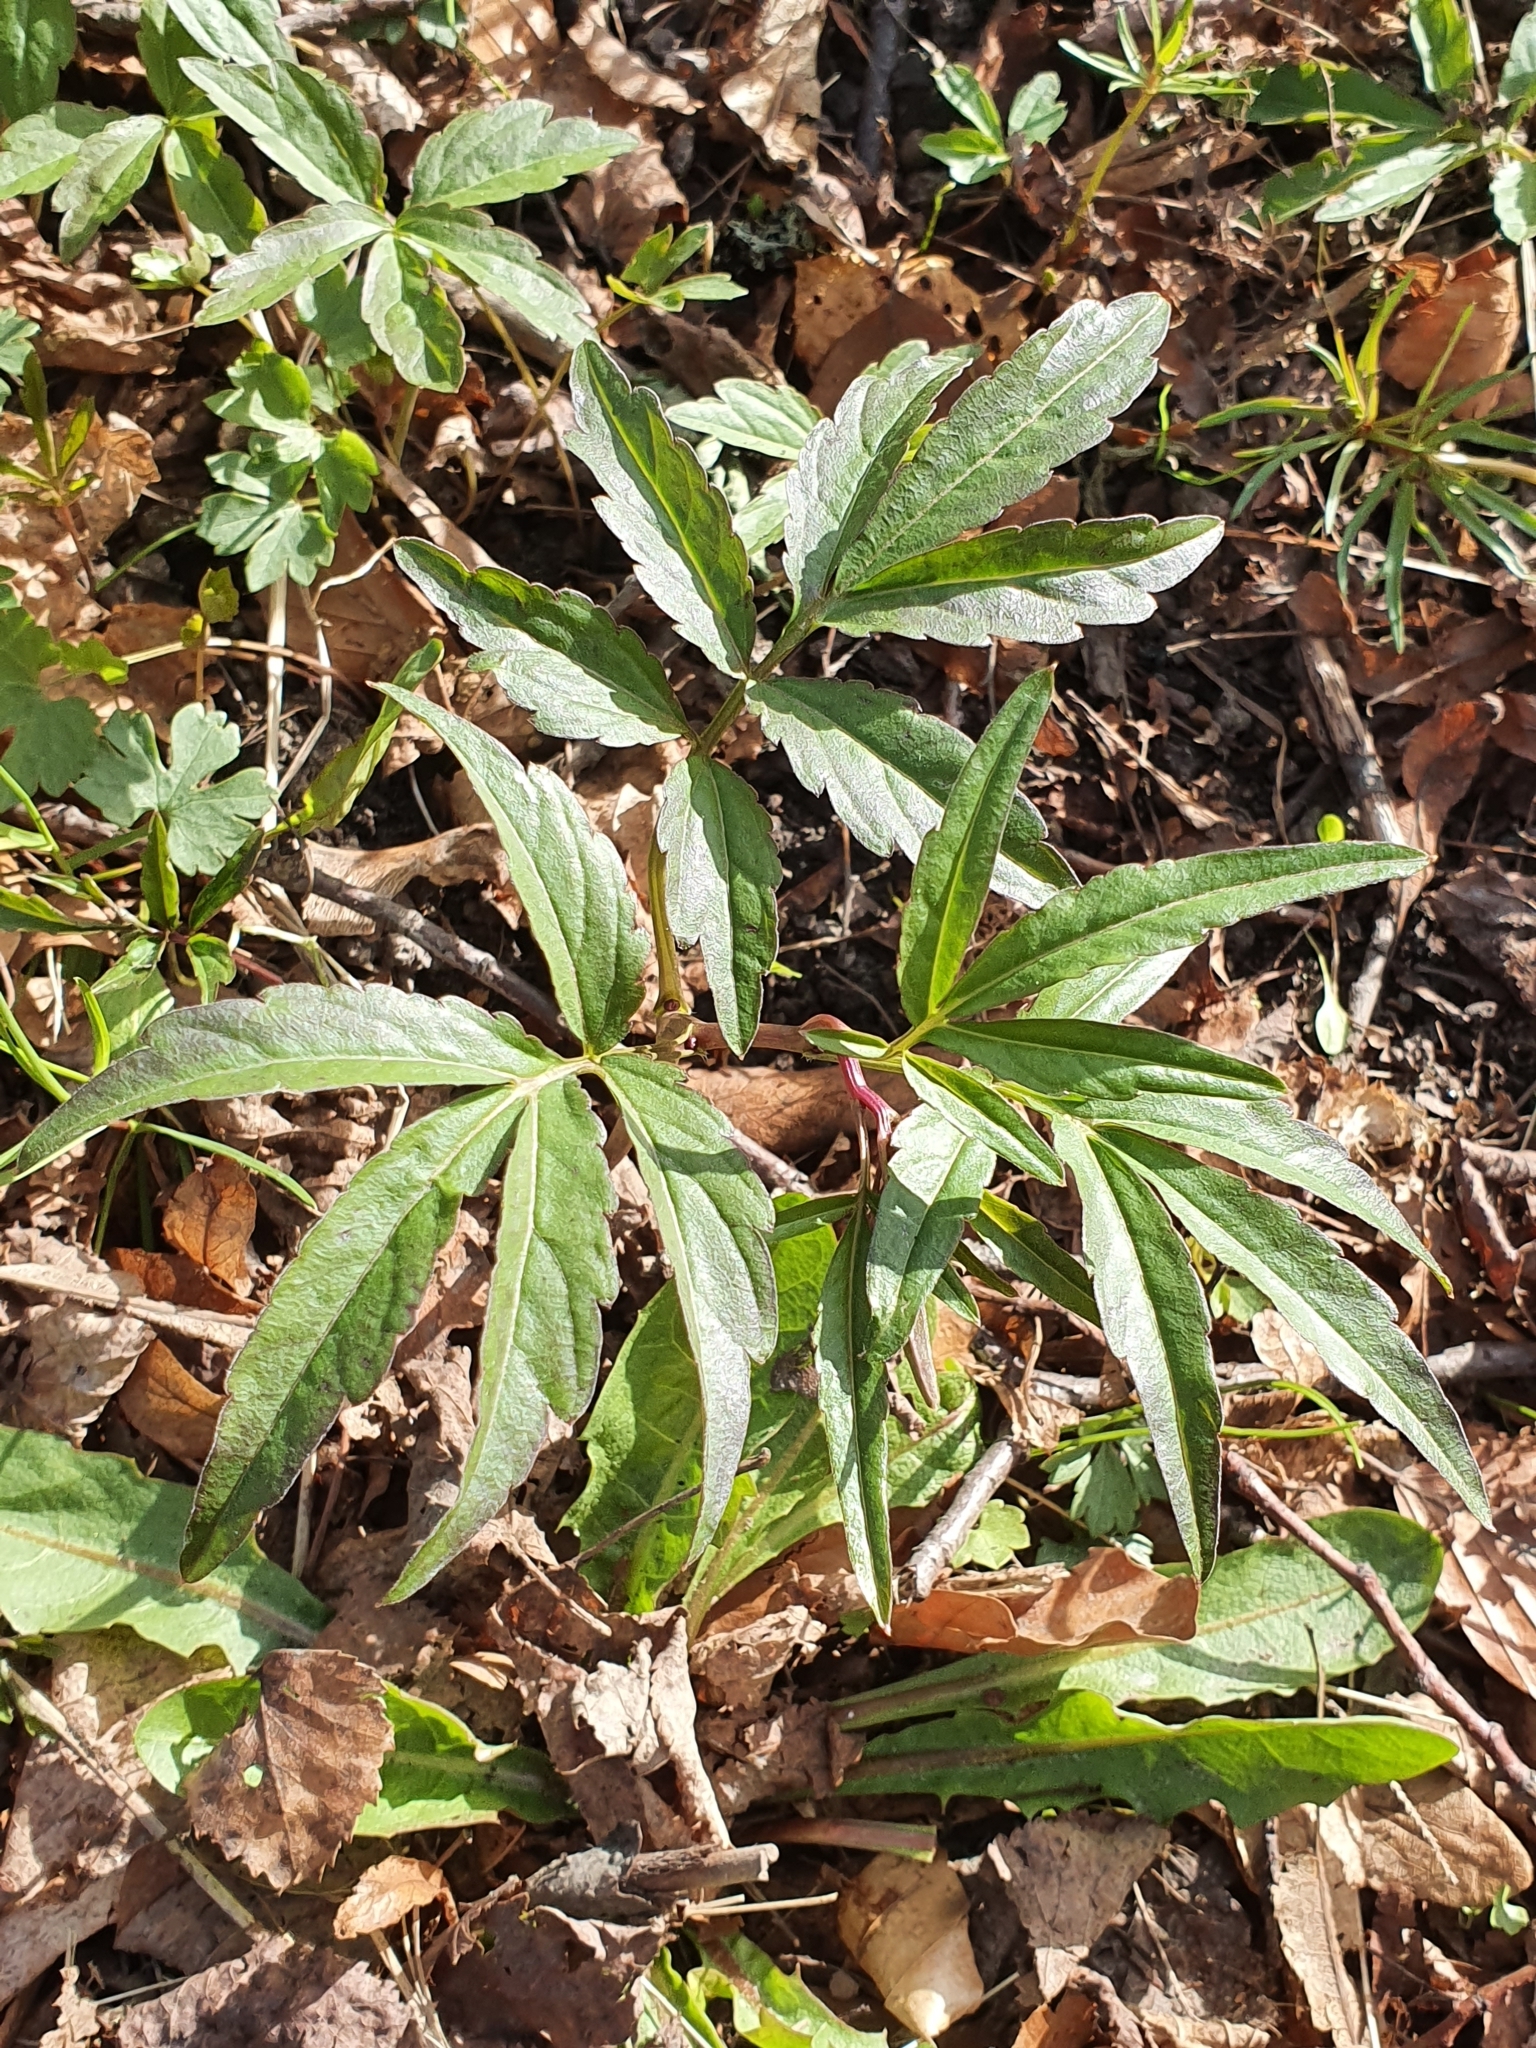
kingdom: Plantae
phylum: Tracheophyta
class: Magnoliopsida
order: Brassicales
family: Brassicaceae
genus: Cardamine
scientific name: Cardamine bulbifera
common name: Coralroot bittercress
